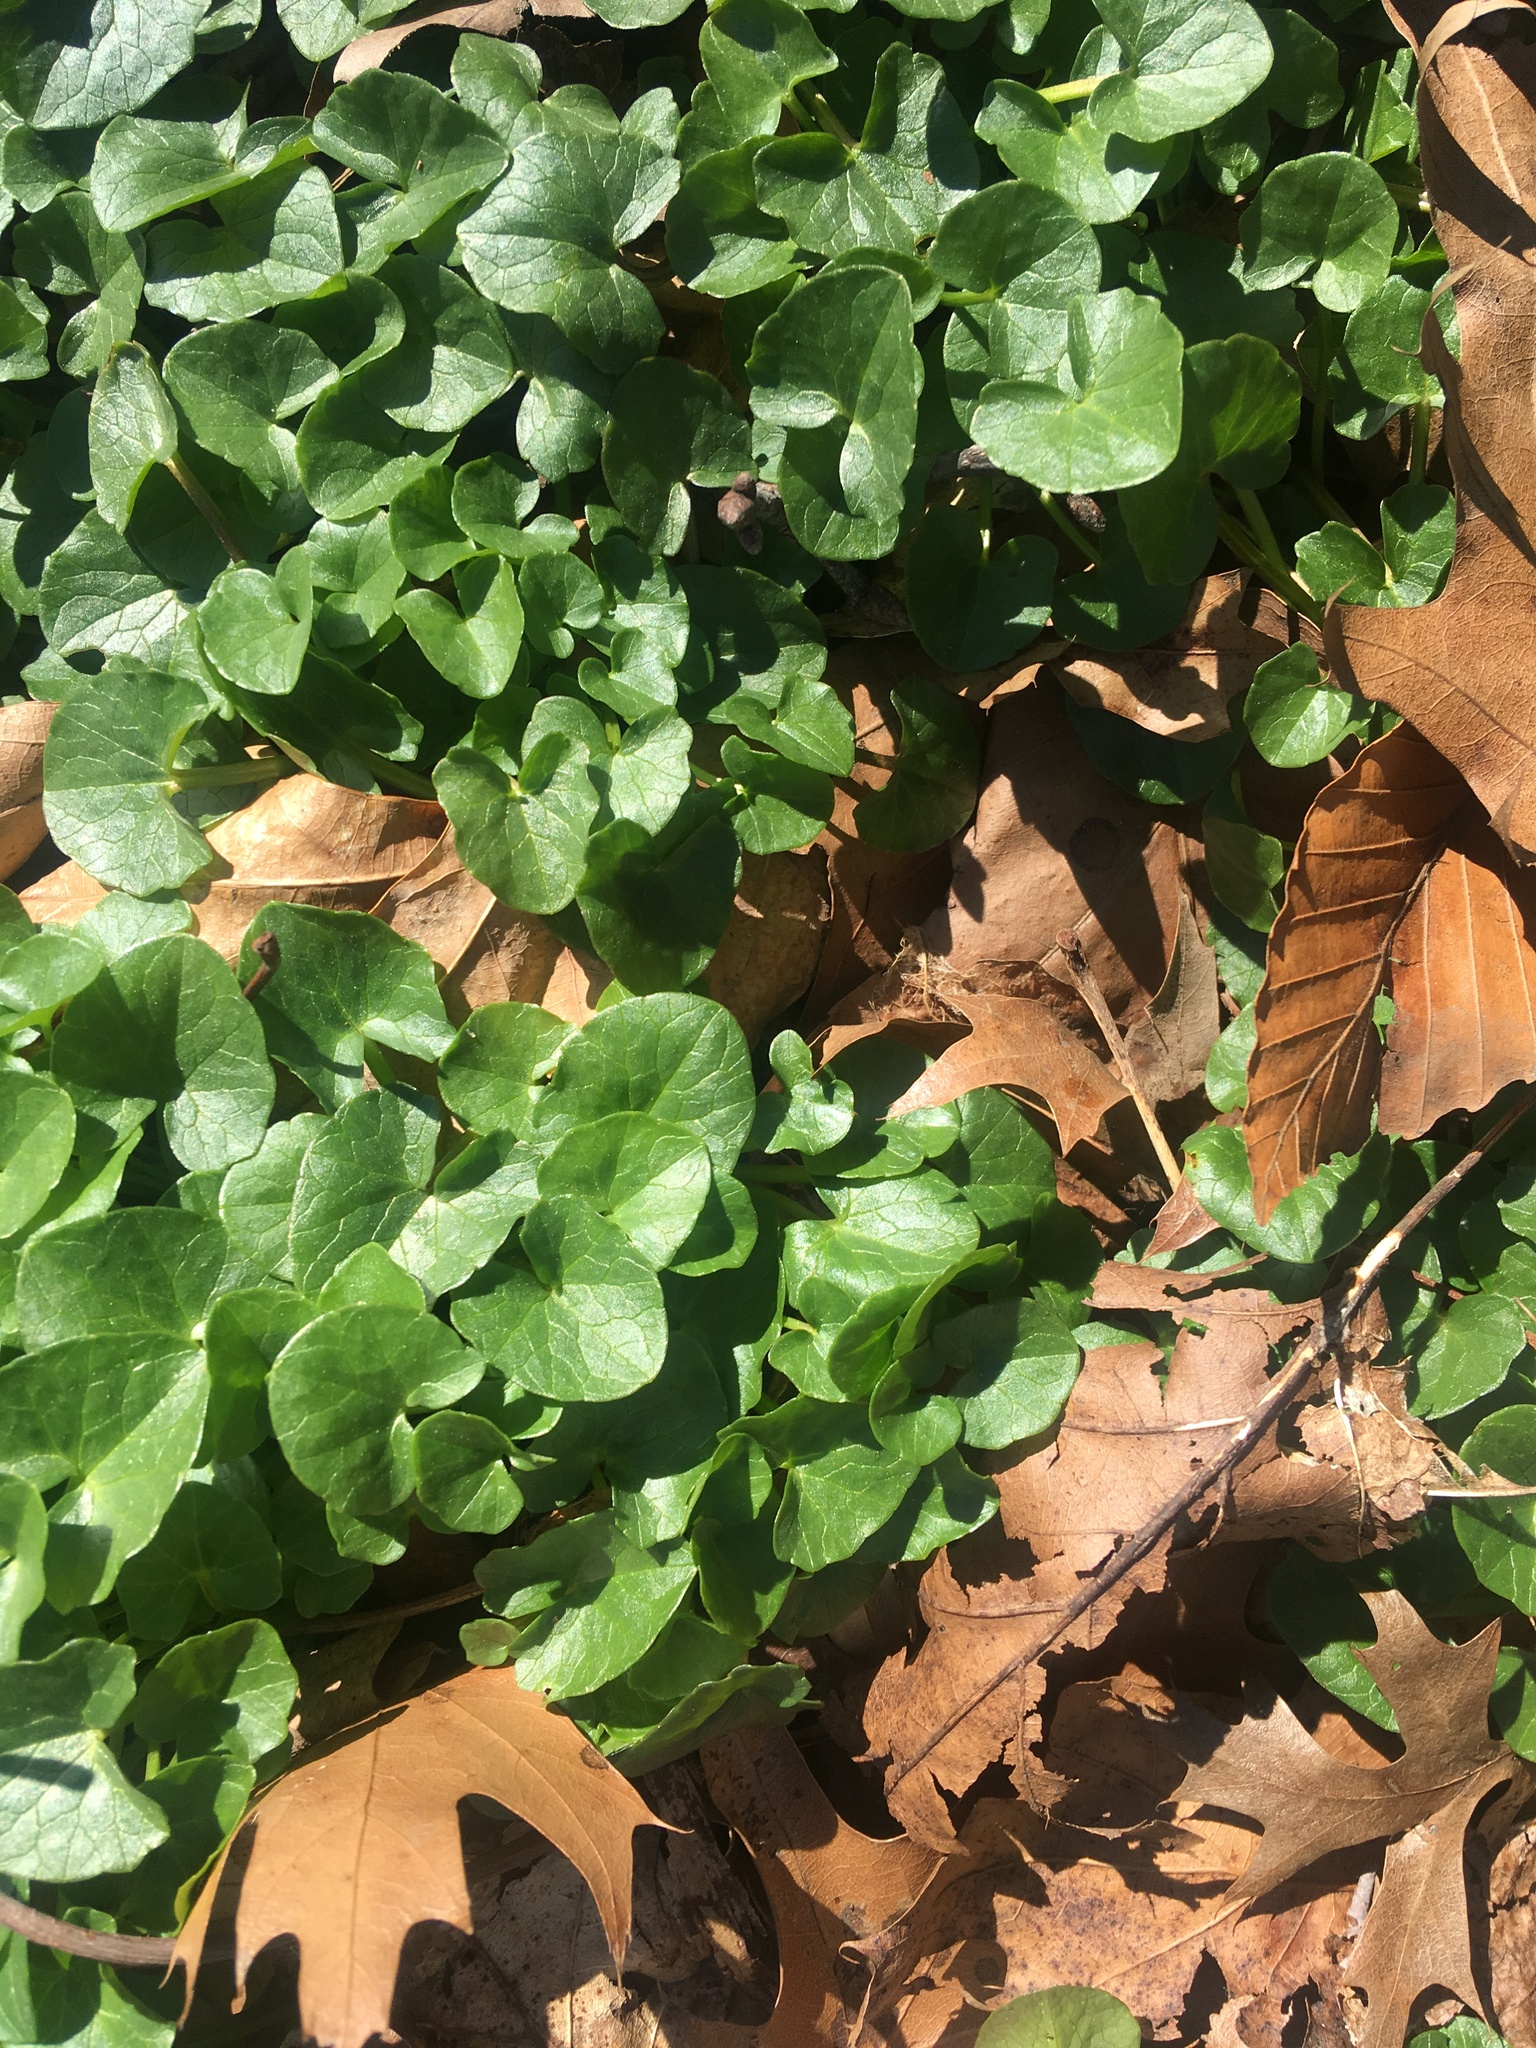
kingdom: Plantae
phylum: Tracheophyta
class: Magnoliopsida
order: Ranunculales
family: Ranunculaceae
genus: Ficaria
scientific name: Ficaria verna
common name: Lesser celandine
